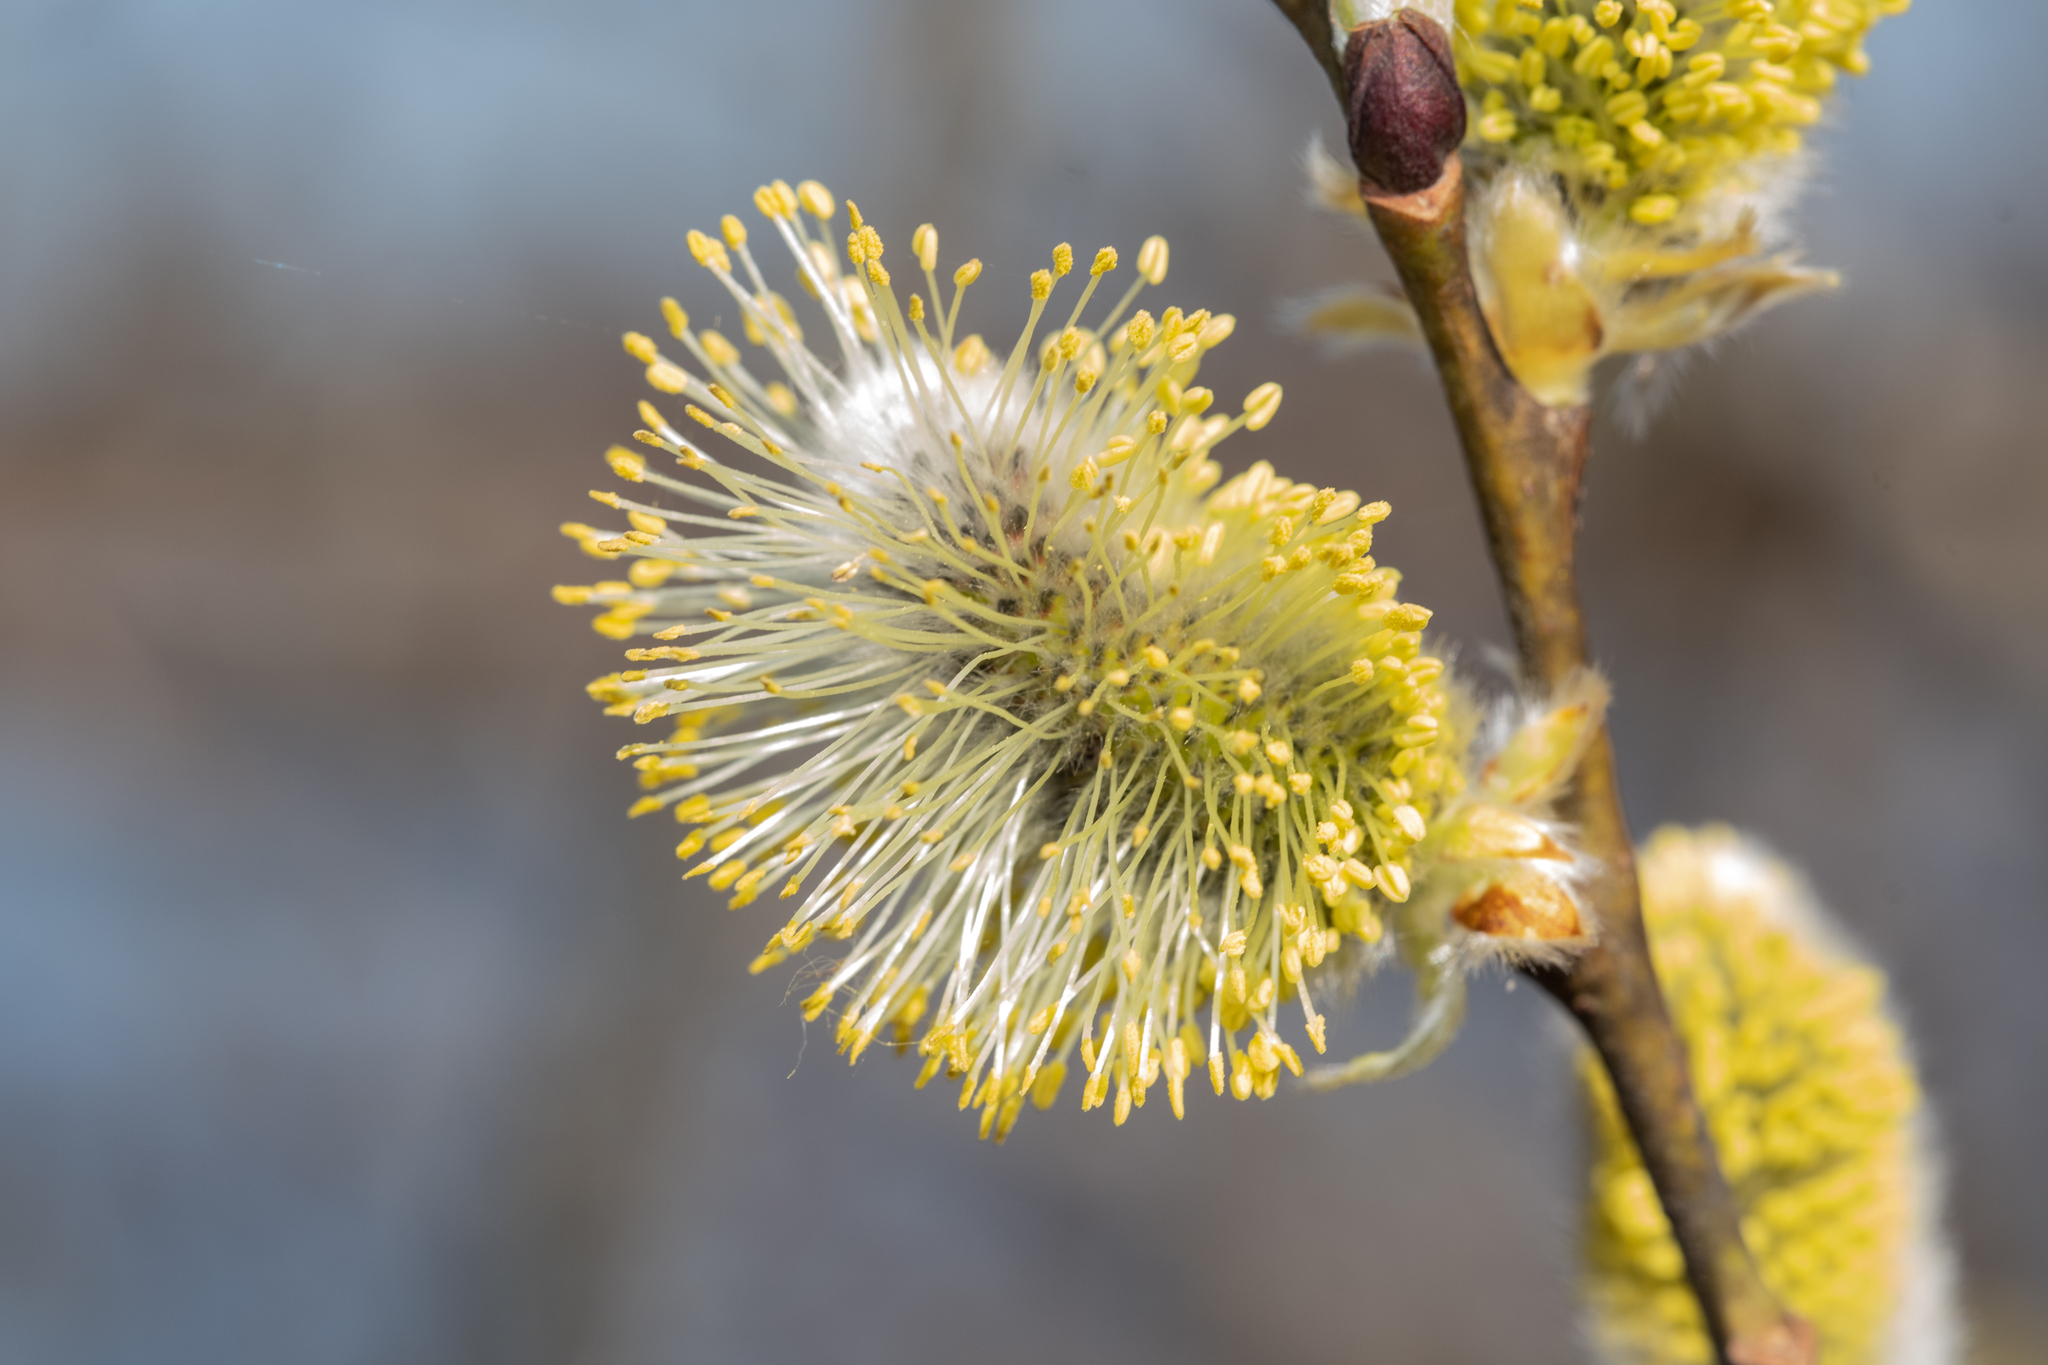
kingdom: Plantae
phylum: Tracheophyta
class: Magnoliopsida
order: Malpighiales
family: Salicaceae
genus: Salix
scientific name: Salix caprea
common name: Goat willow
